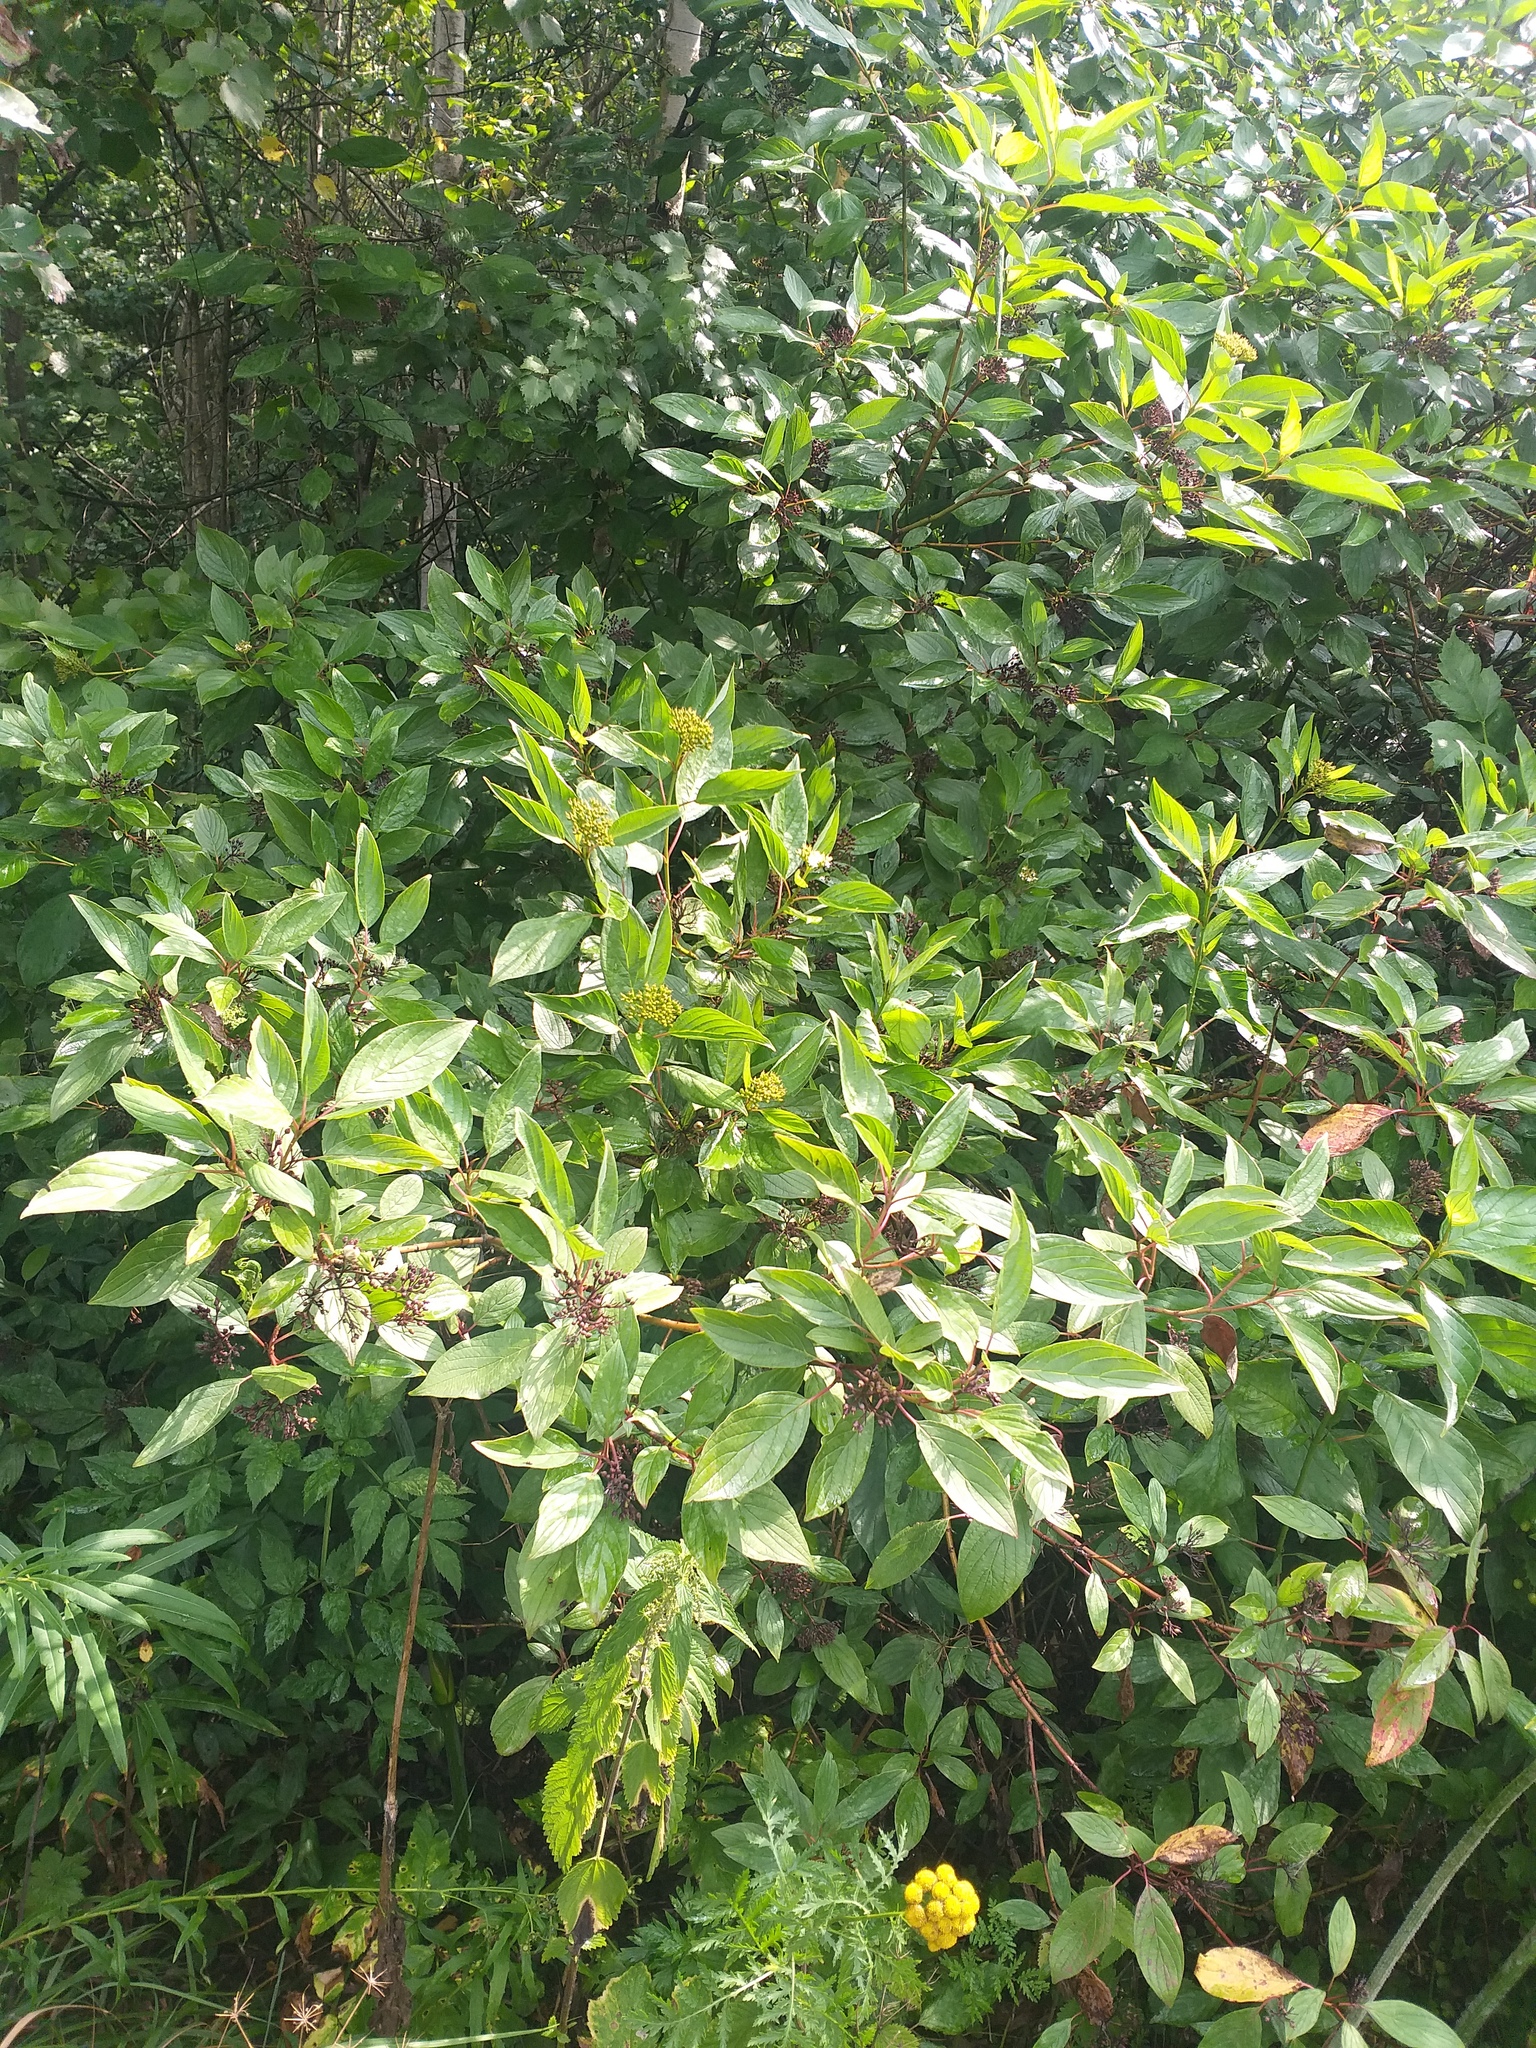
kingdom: Plantae
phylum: Tracheophyta
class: Magnoliopsida
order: Cornales
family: Cornaceae
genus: Cornus
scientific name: Cornus alba
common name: White dogwood
